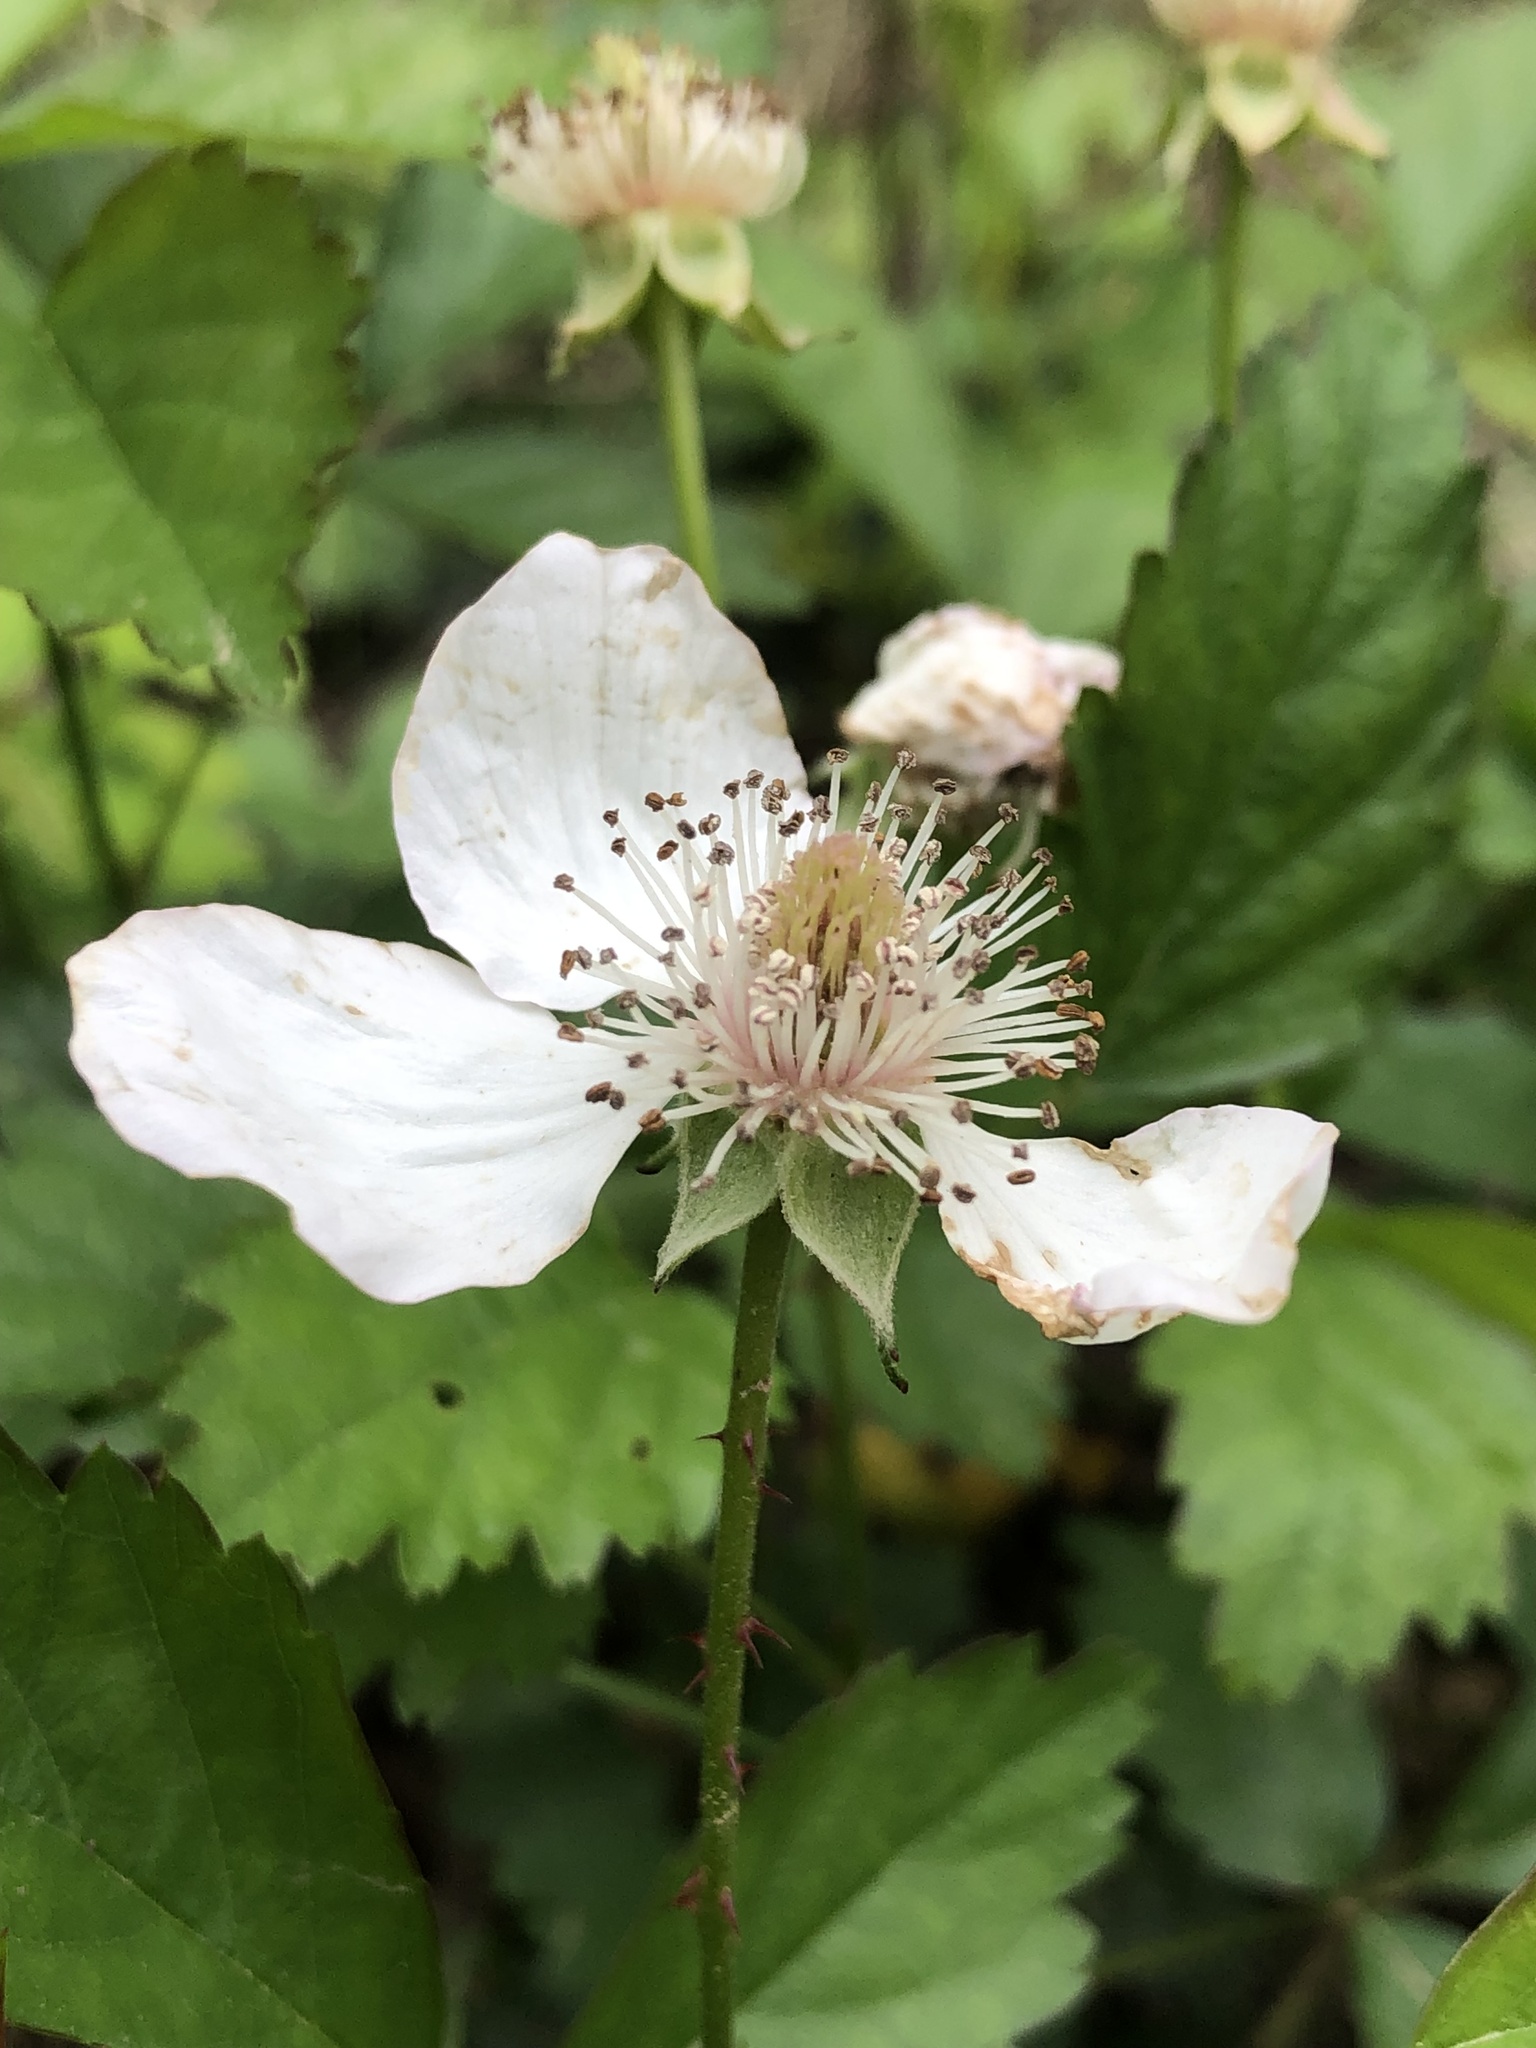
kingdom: Plantae
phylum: Tracheophyta
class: Magnoliopsida
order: Rosales
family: Rosaceae
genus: Rubus
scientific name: Rubus trivialis
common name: Southern dewberry
